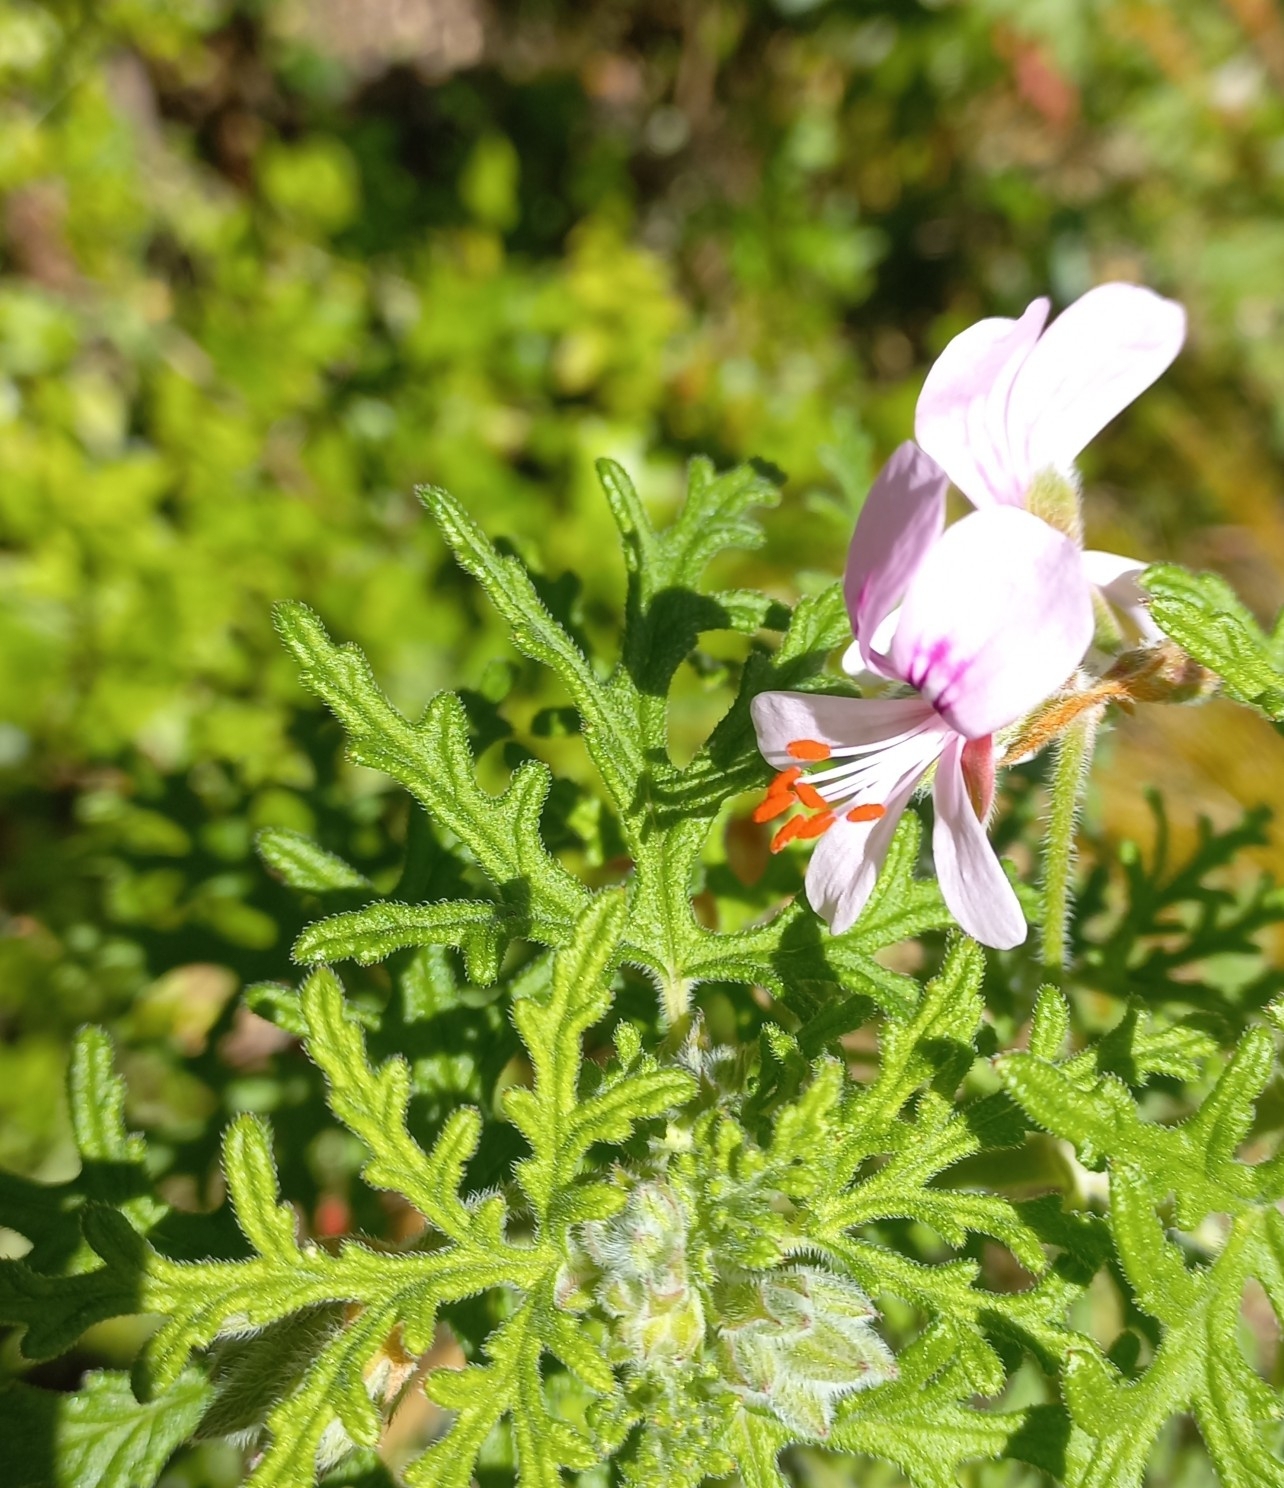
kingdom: Plantae
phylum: Tracheophyta
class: Magnoliopsida
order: Geraniales
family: Geraniaceae
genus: Pelargonium
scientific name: Pelargonium radens
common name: Rasp-leaf pelargonium
